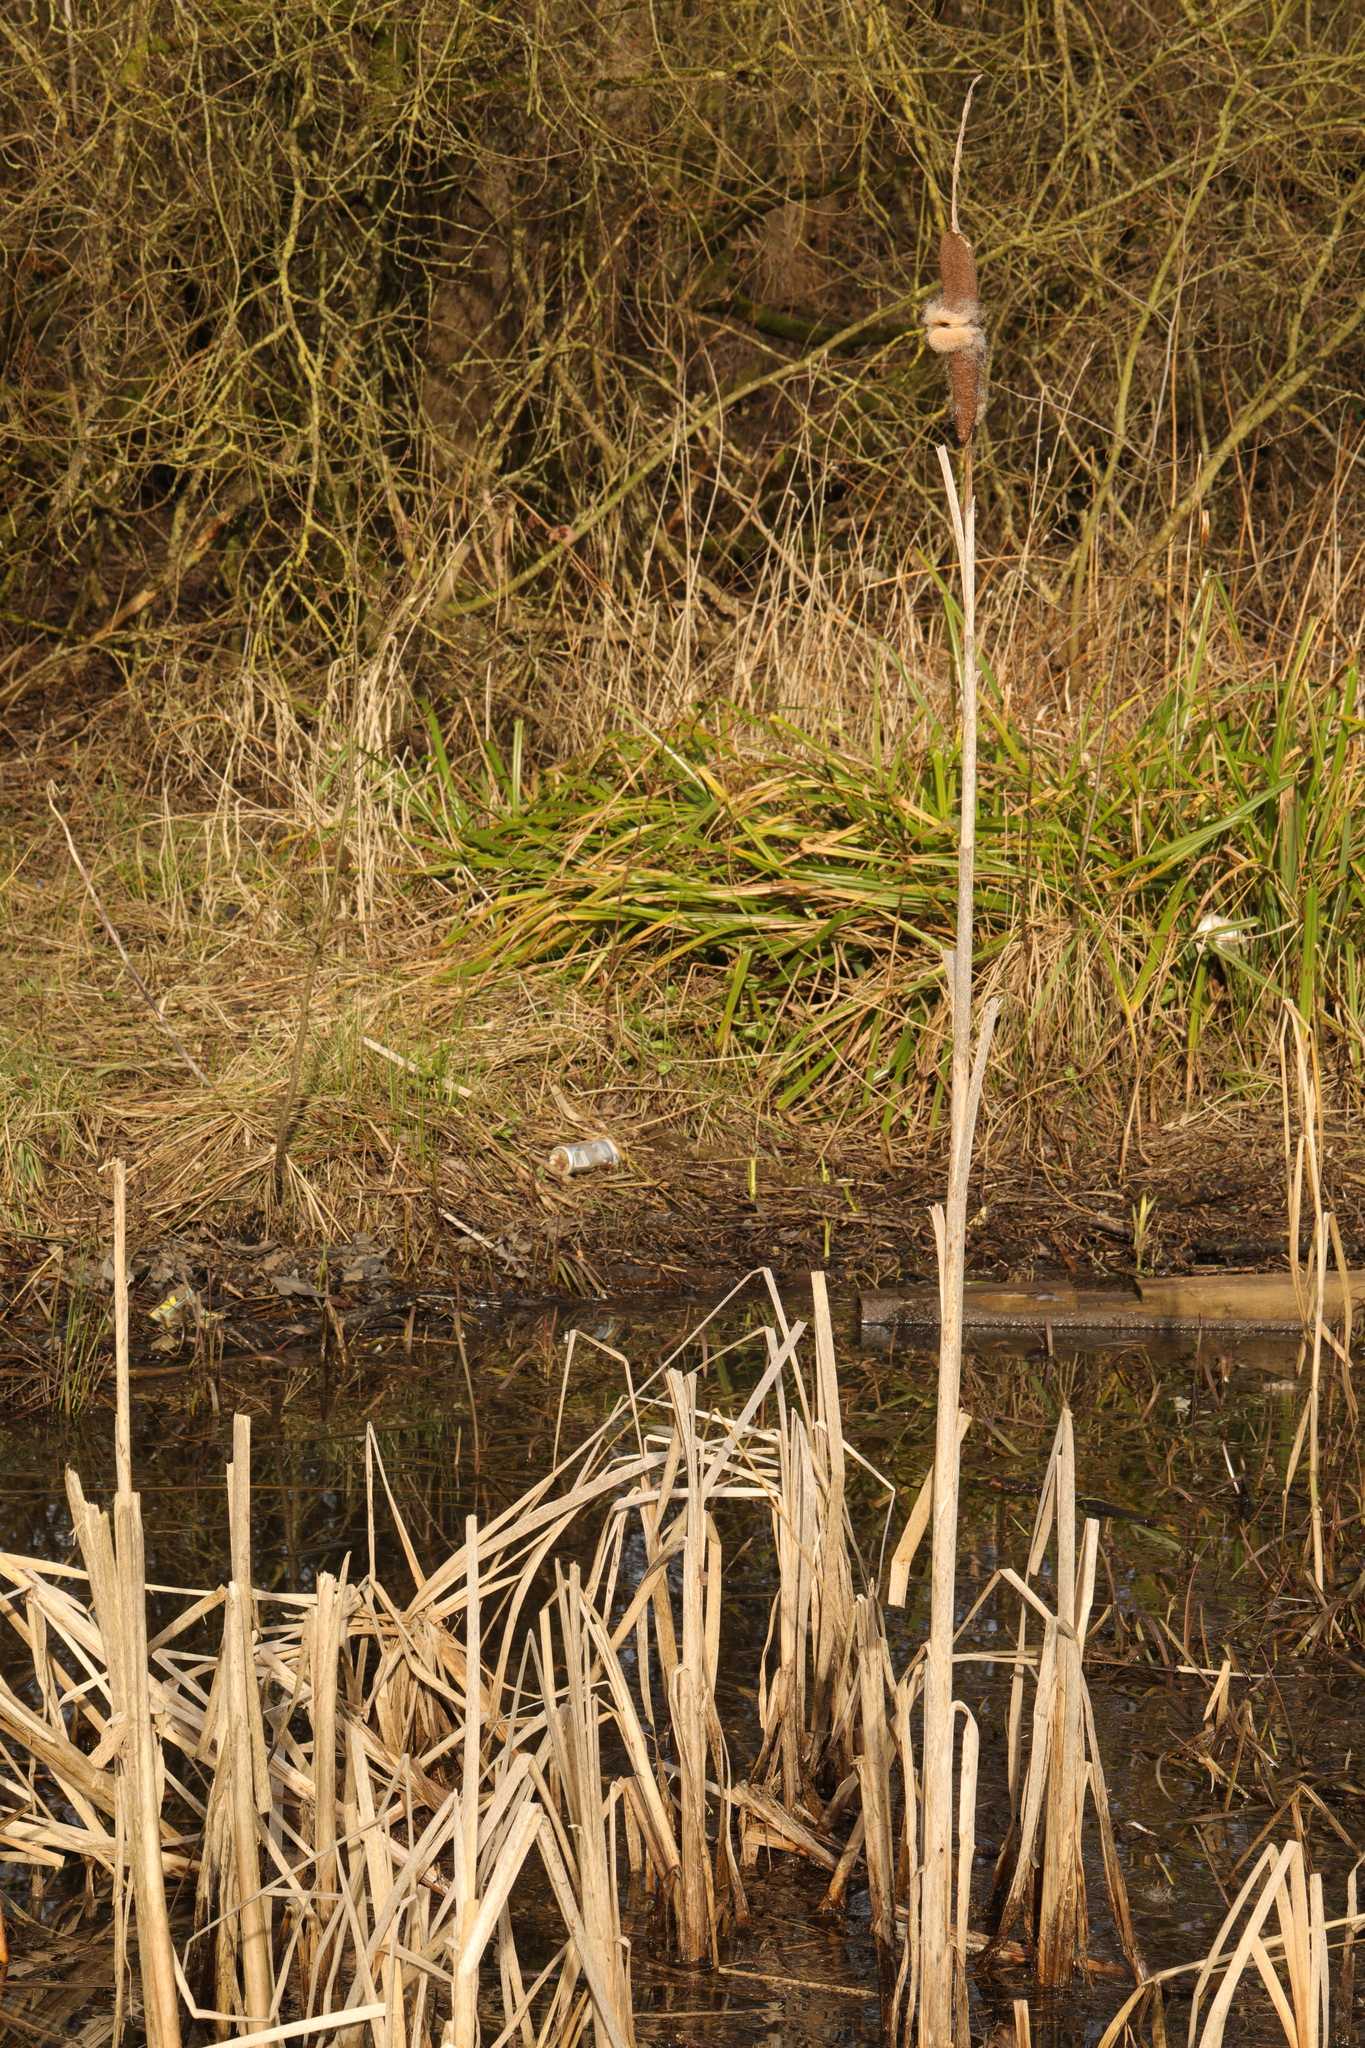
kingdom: Plantae
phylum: Tracheophyta
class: Liliopsida
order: Poales
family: Typhaceae
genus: Typha
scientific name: Typha latifolia
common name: Broadleaf cattail
